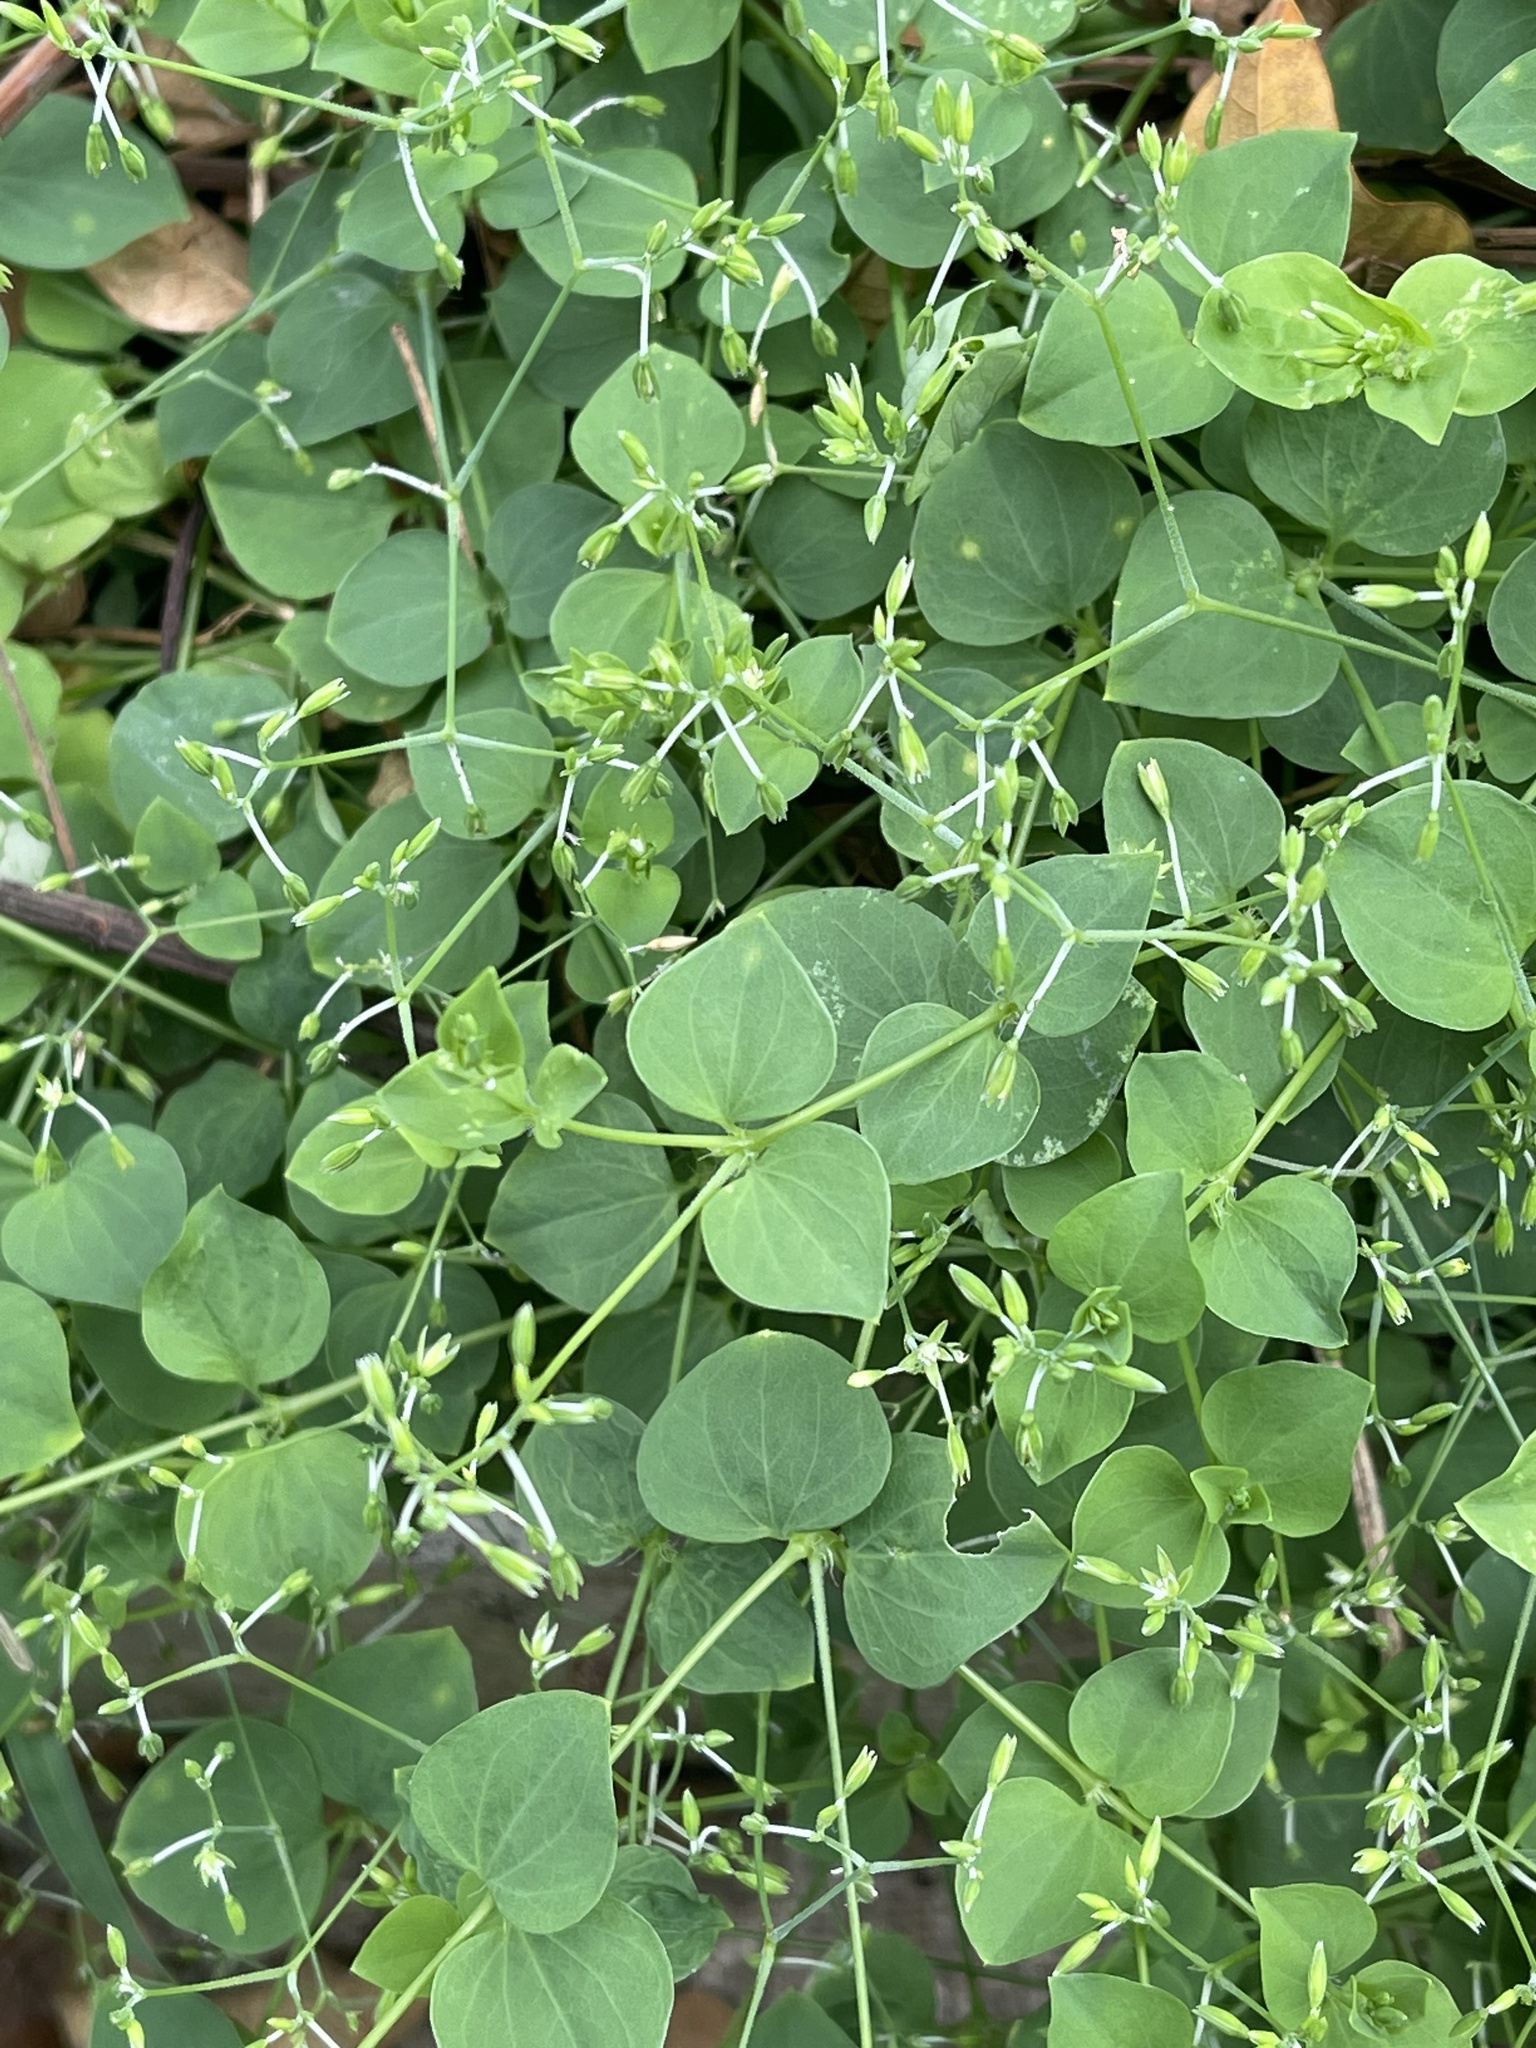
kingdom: Plantae
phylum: Tracheophyta
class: Magnoliopsida
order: Caryophyllales
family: Caryophyllaceae
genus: Drymaria
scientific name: Drymaria cordata
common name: Whitesnow
